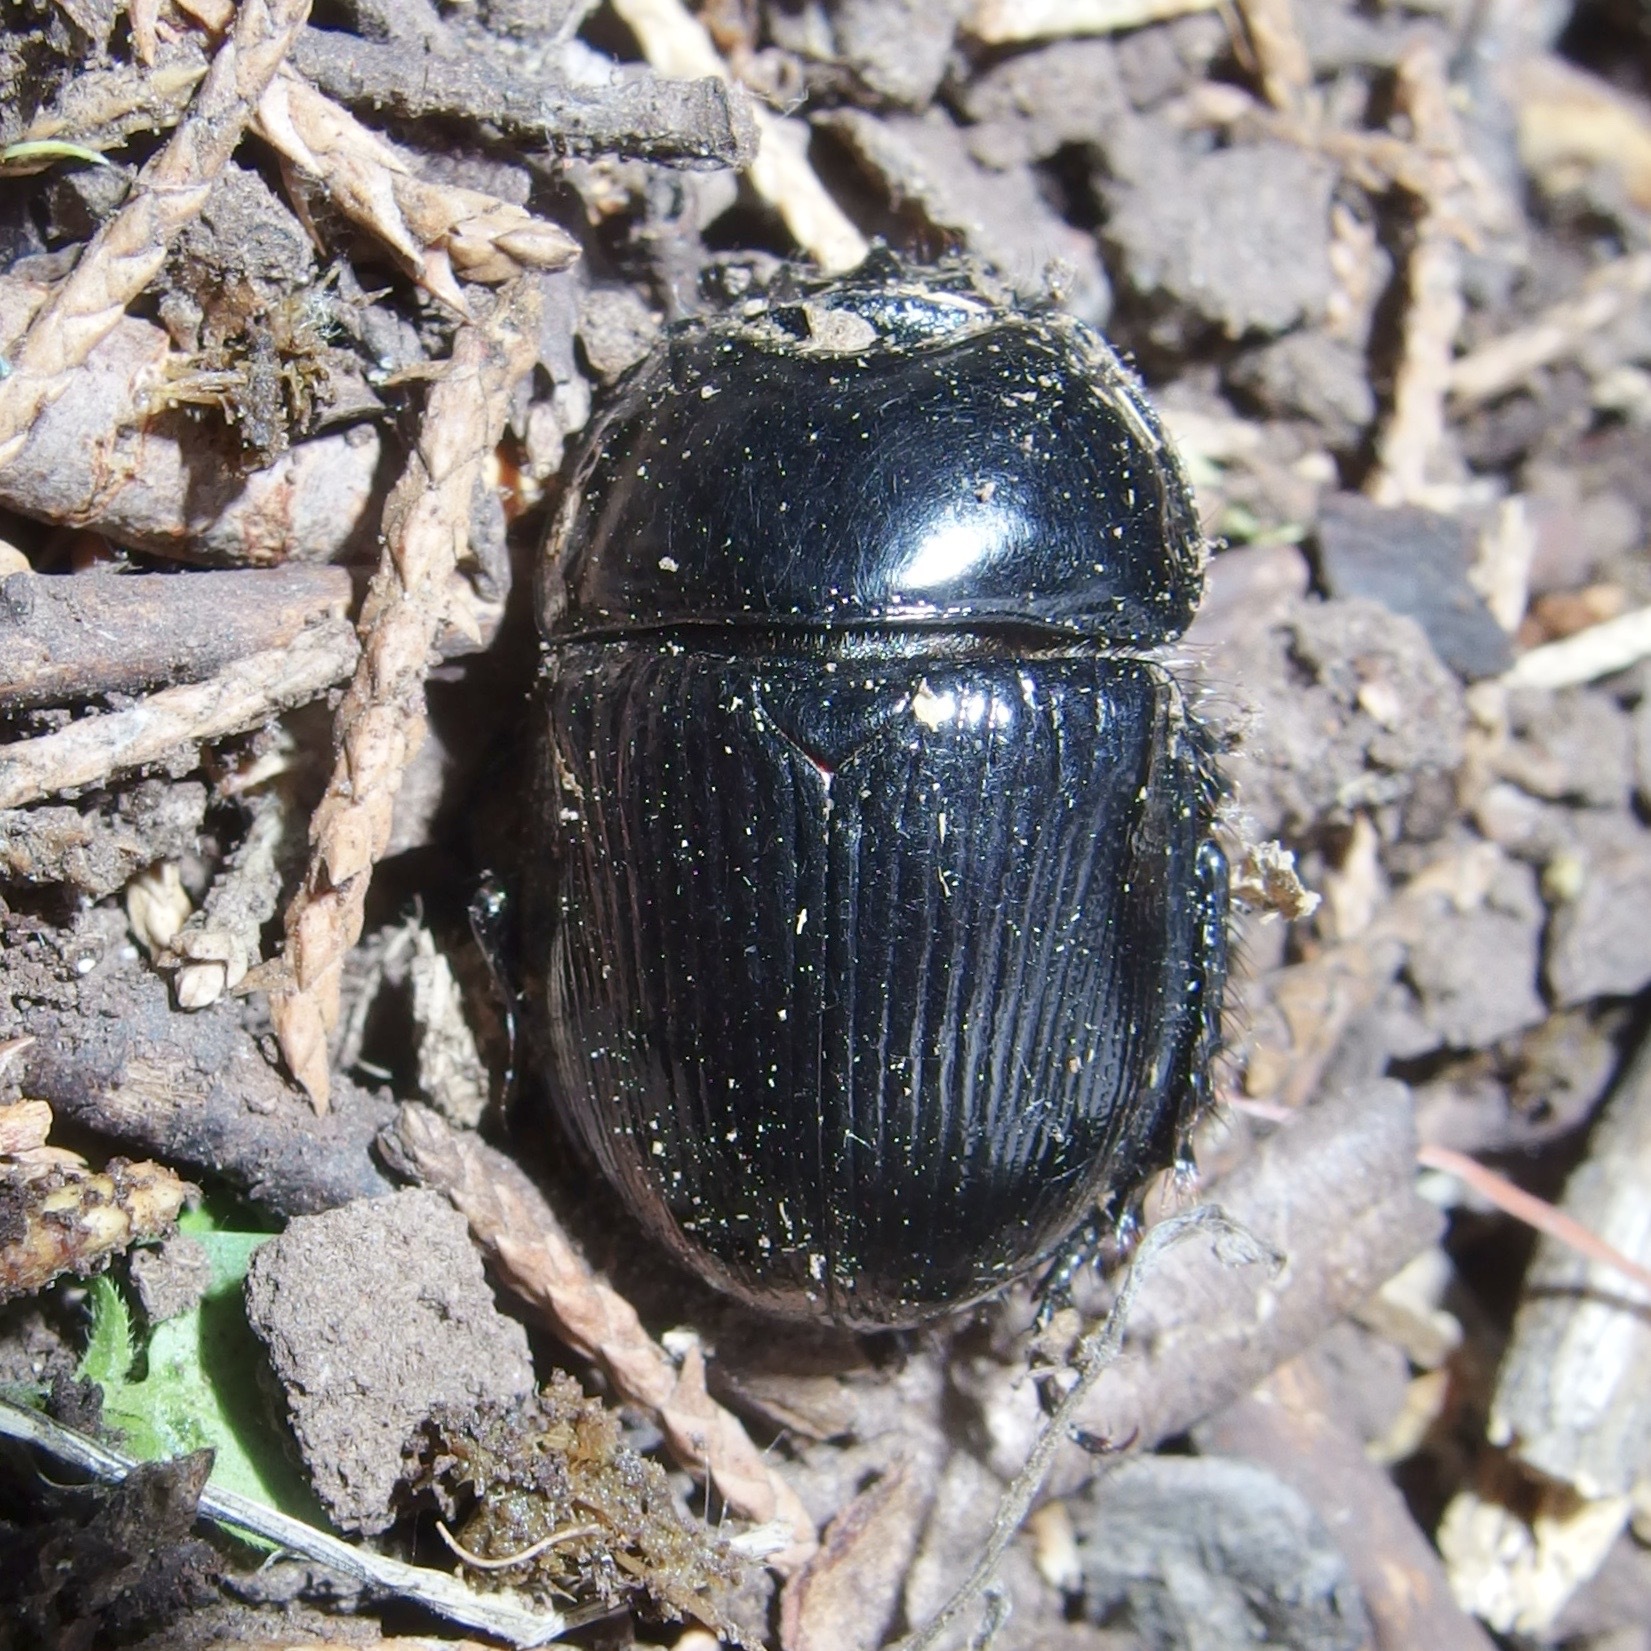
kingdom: Animalia
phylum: Arthropoda
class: Insecta
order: Coleoptera
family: Geotrupidae
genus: Megatrupes
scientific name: Megatrupes cavicollis
